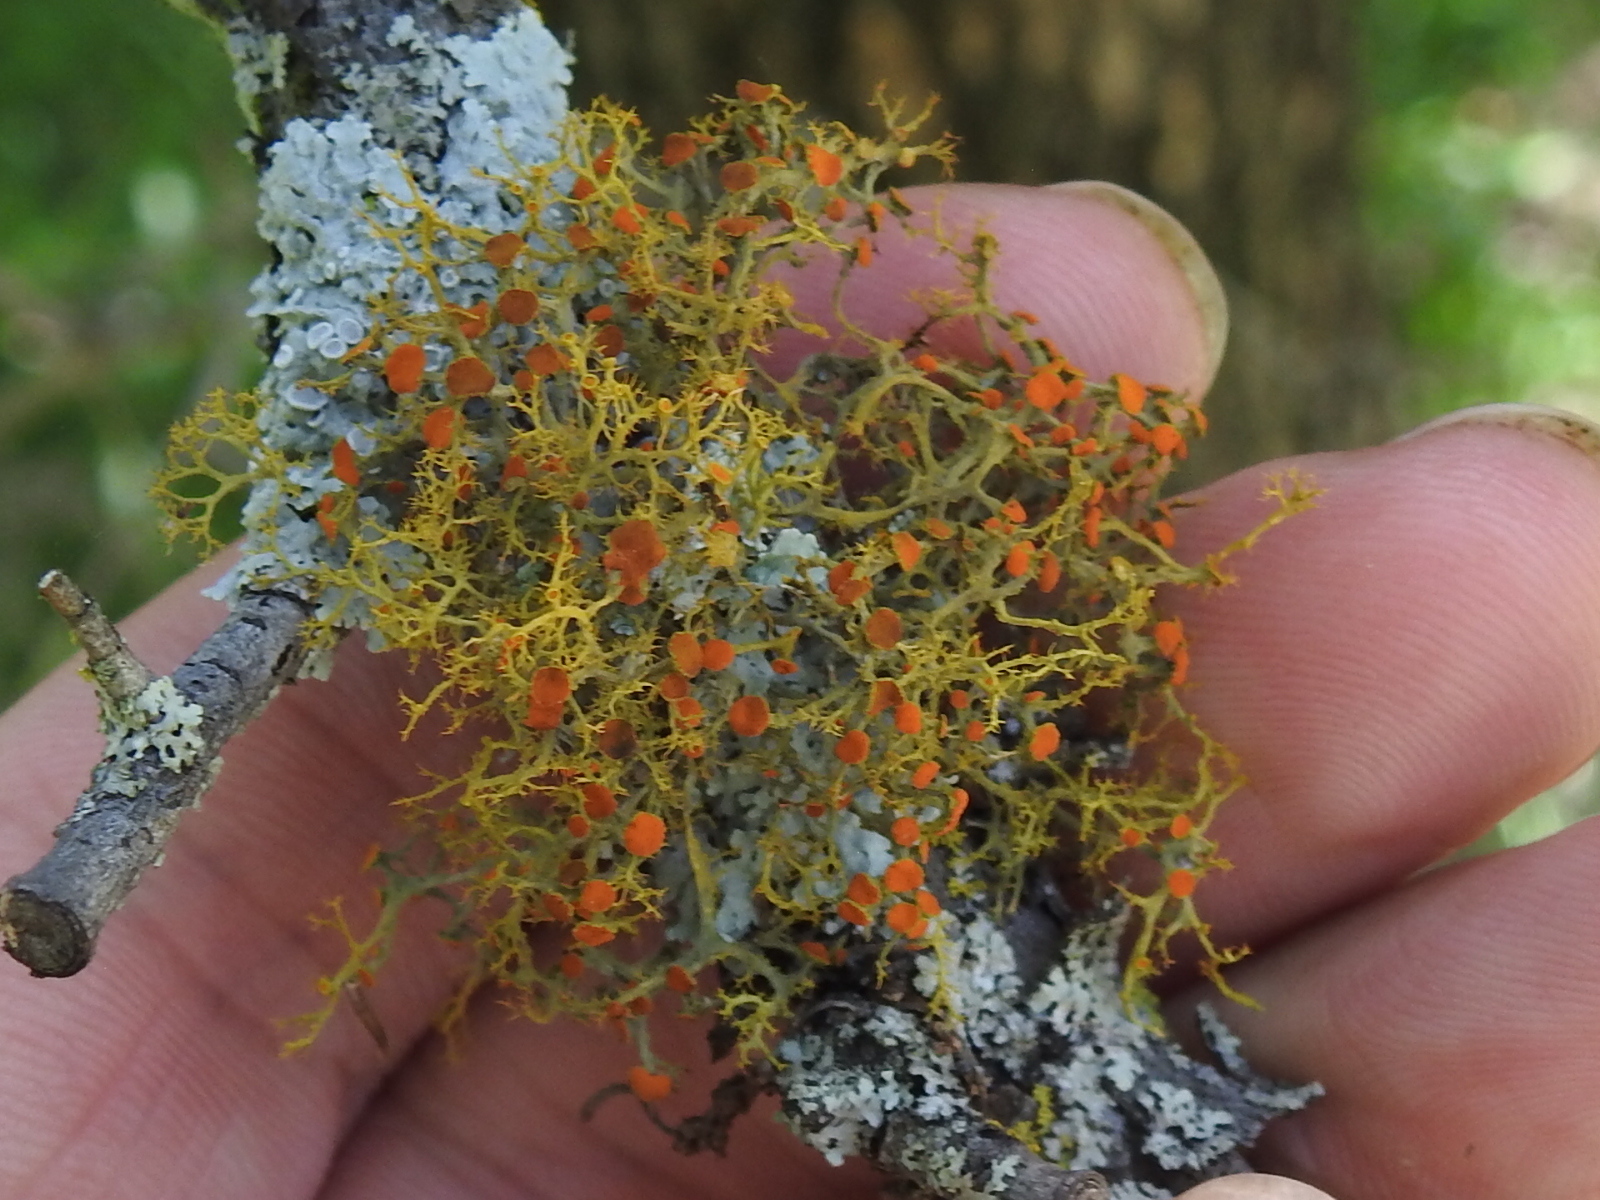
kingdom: Fungi
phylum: Ascomycota
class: Lecanoromycetes
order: Teloschistales
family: Teloschistaceae
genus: Teloschistes
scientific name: Teloschistes exilis
